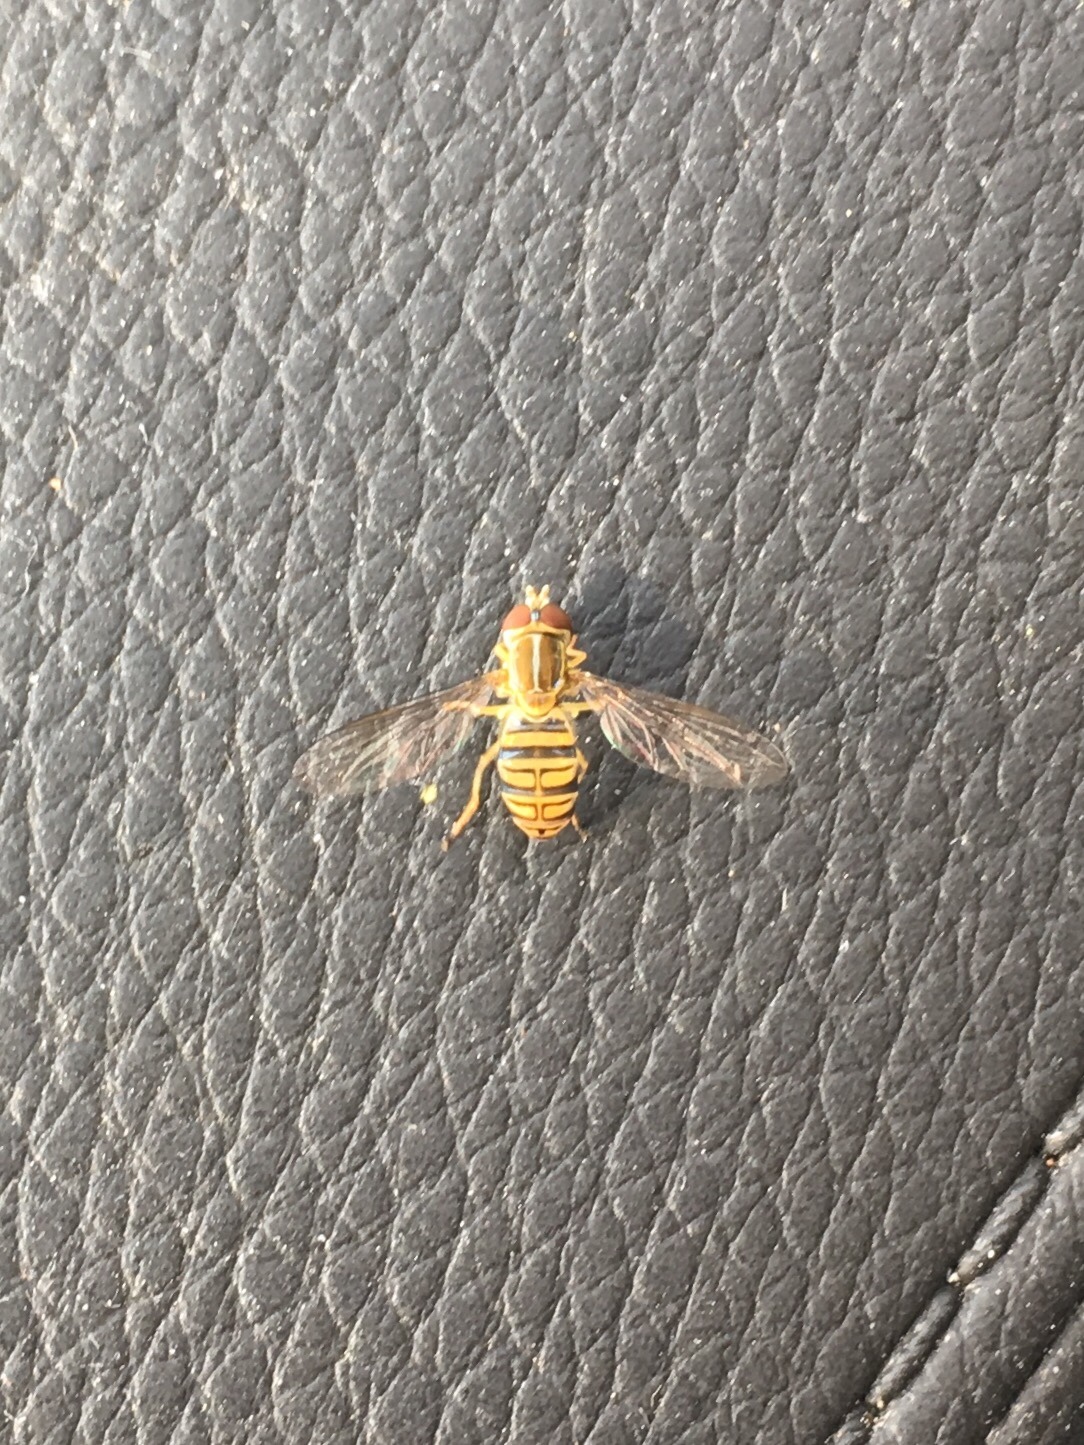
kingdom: Animalia
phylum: Arthropoda
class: Insecta
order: Diptera
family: Syrphidae
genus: Toxomerus
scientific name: Toxomerus politus
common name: Maize calligrapher
